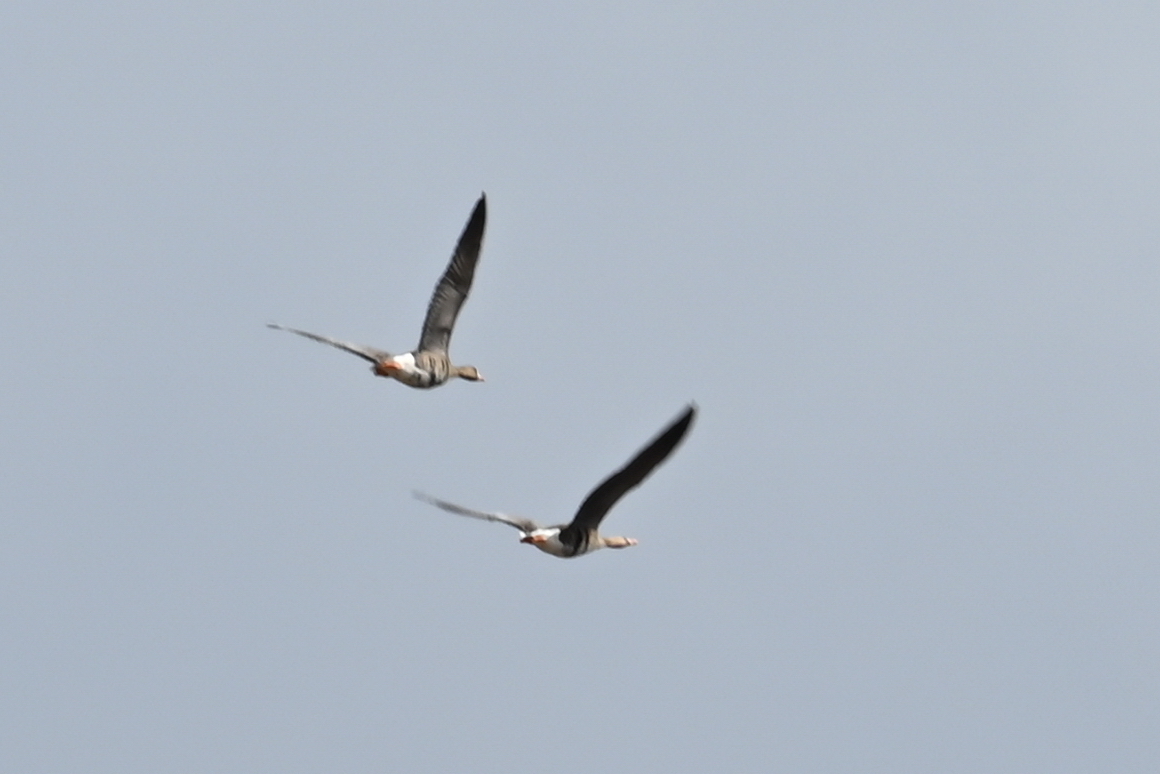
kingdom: Animalia
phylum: Chordata
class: Aves
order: Anseriformes
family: Anatidae
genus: Anser
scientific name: Anser albifrons
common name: Greater white-fronted goose
